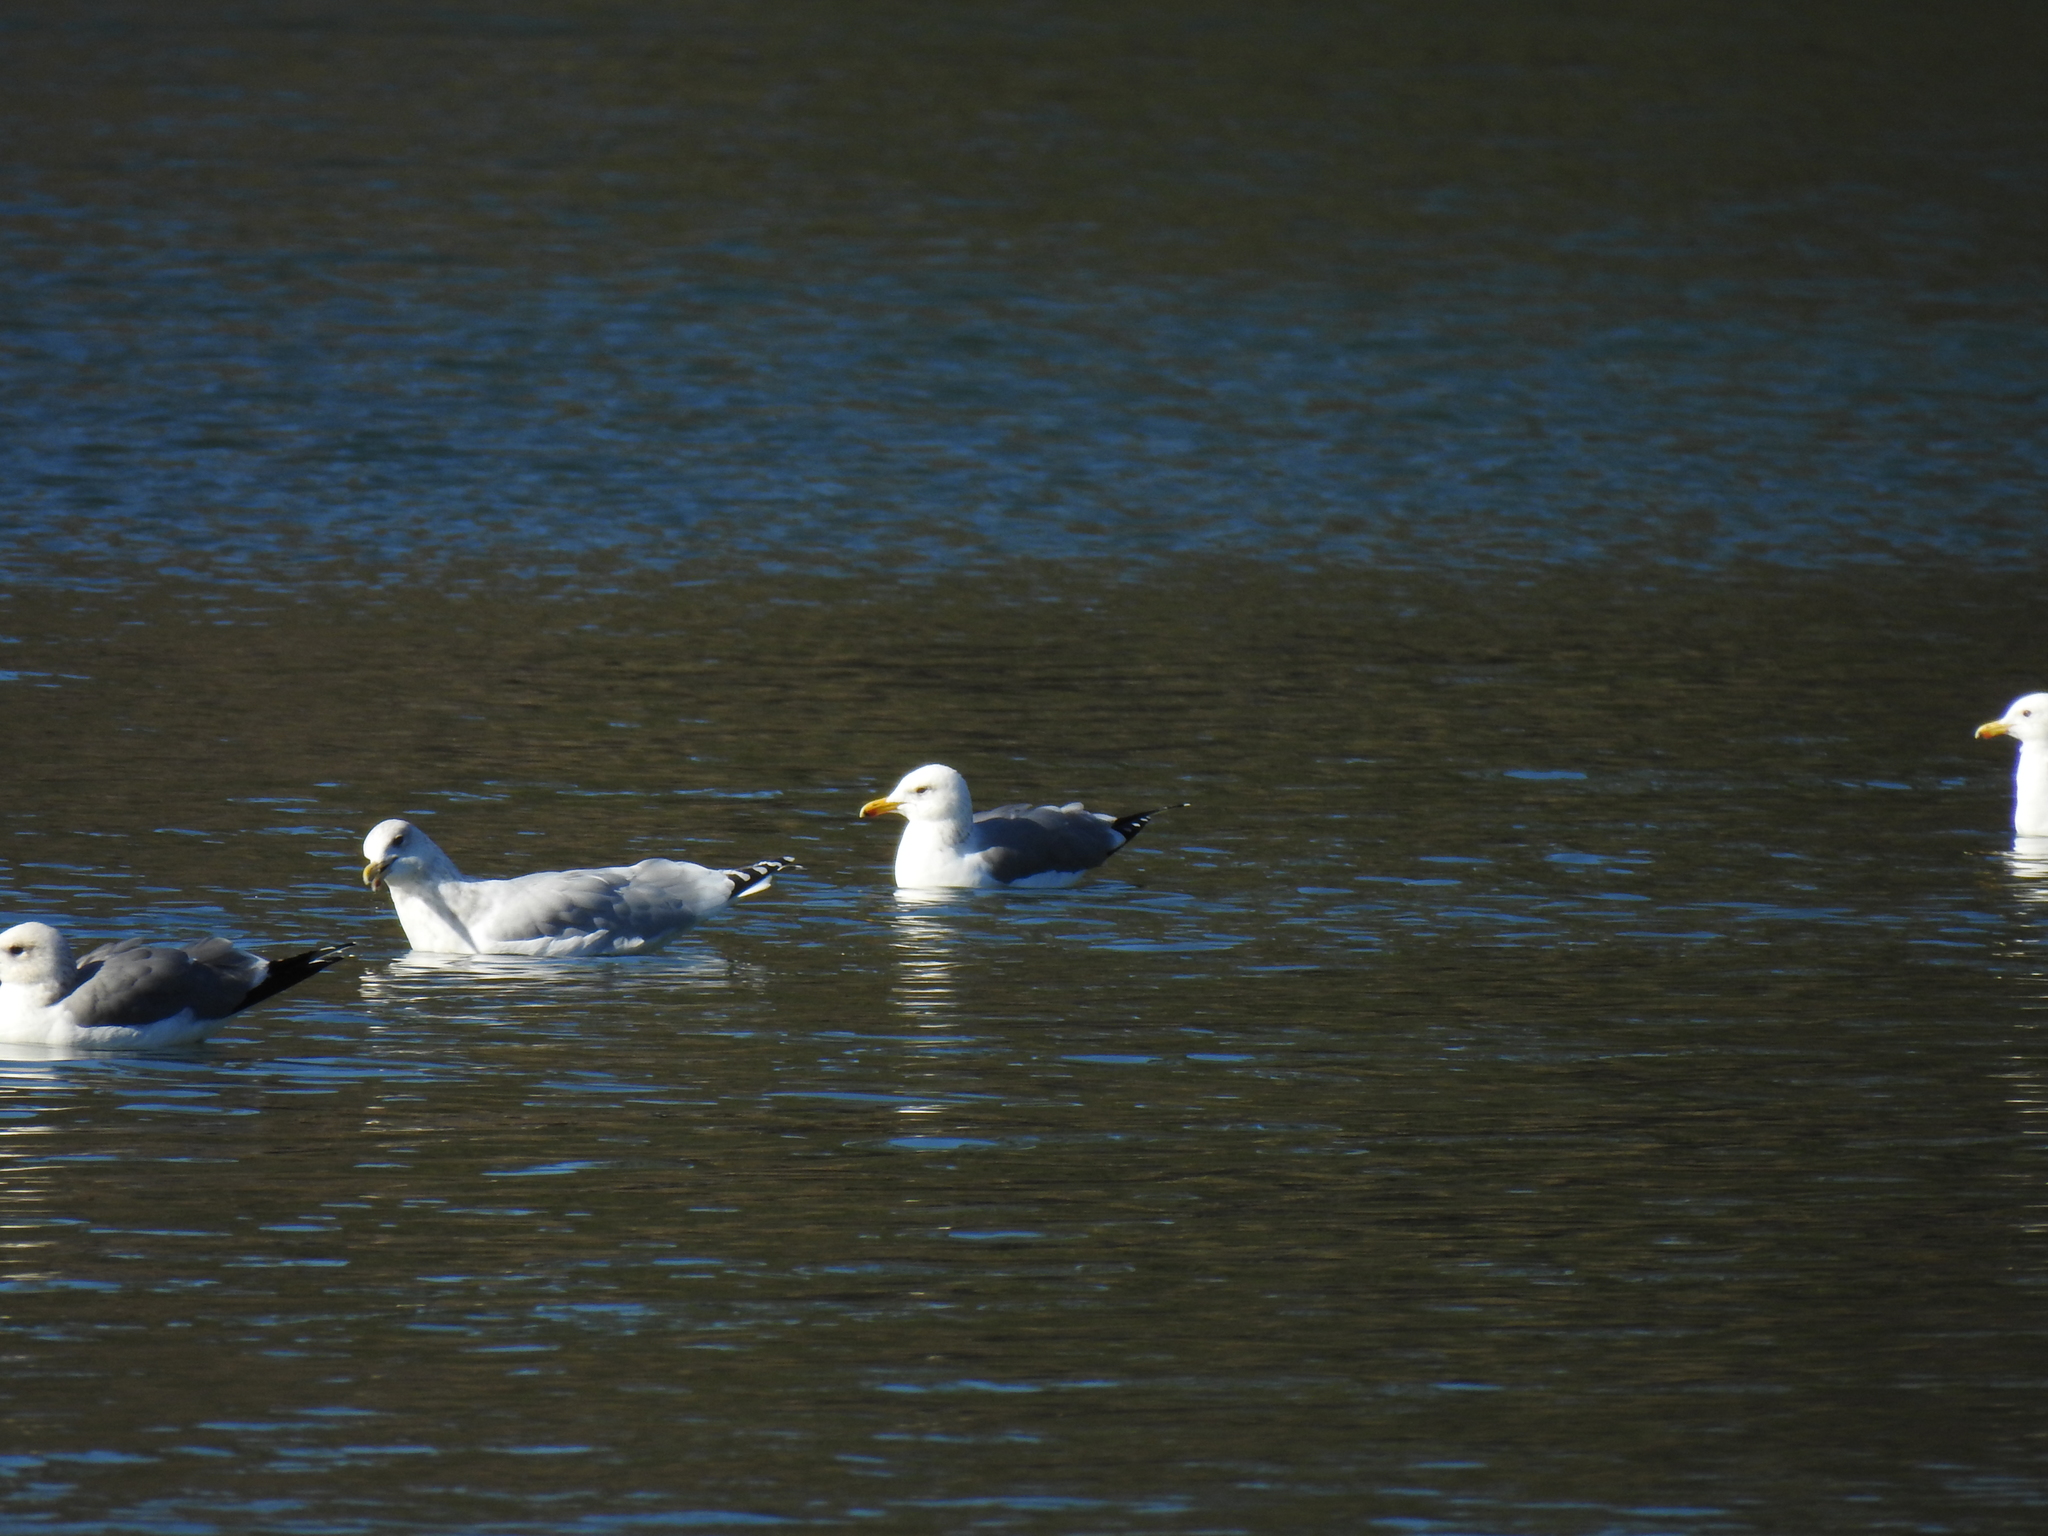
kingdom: Animalia
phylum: Chordata
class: Aves
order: Charadriiformes
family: Laridae
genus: Larus
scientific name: Larus californicus
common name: California gull
